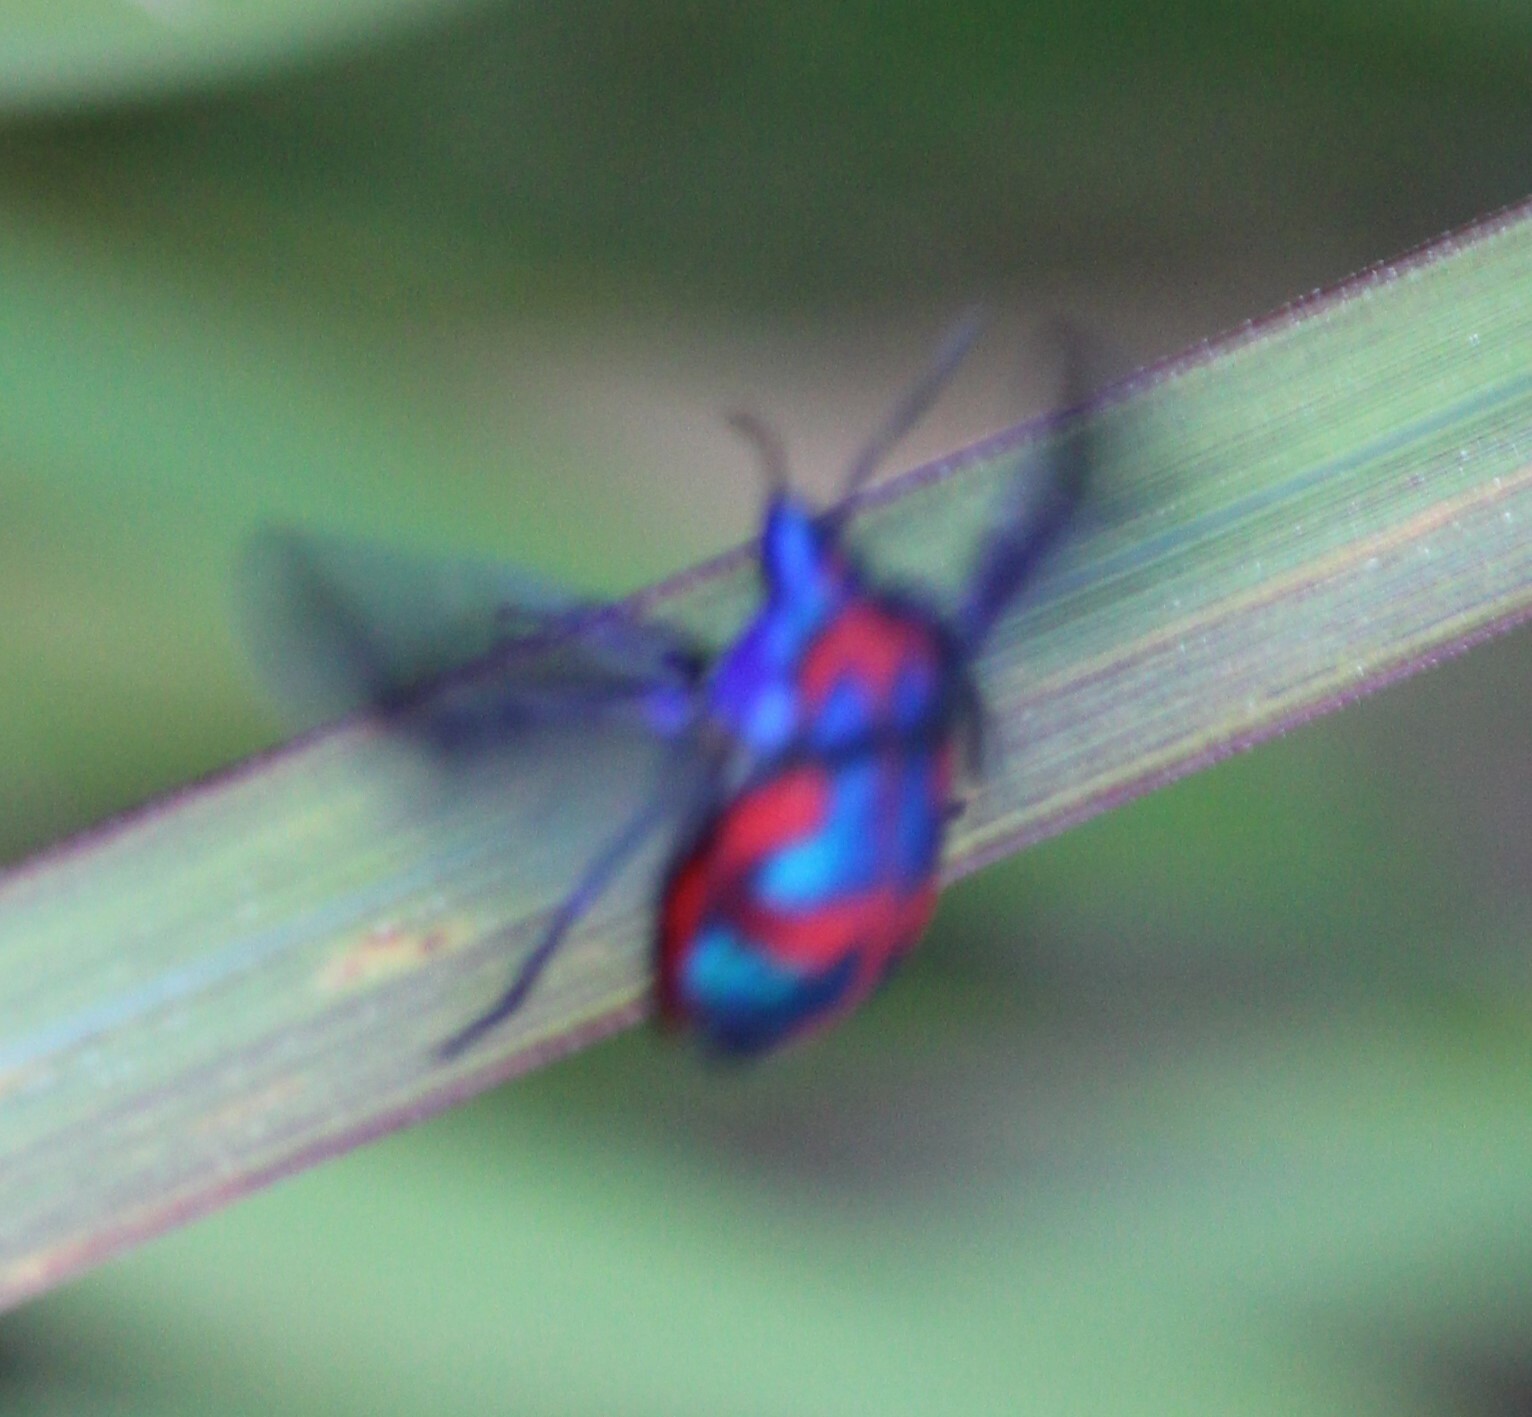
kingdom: Animalia
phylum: Arthropoda
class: Insecta
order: Hemiptera
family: Scutelleridae
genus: Tectocoris
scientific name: Tectocoris diophthalmus
